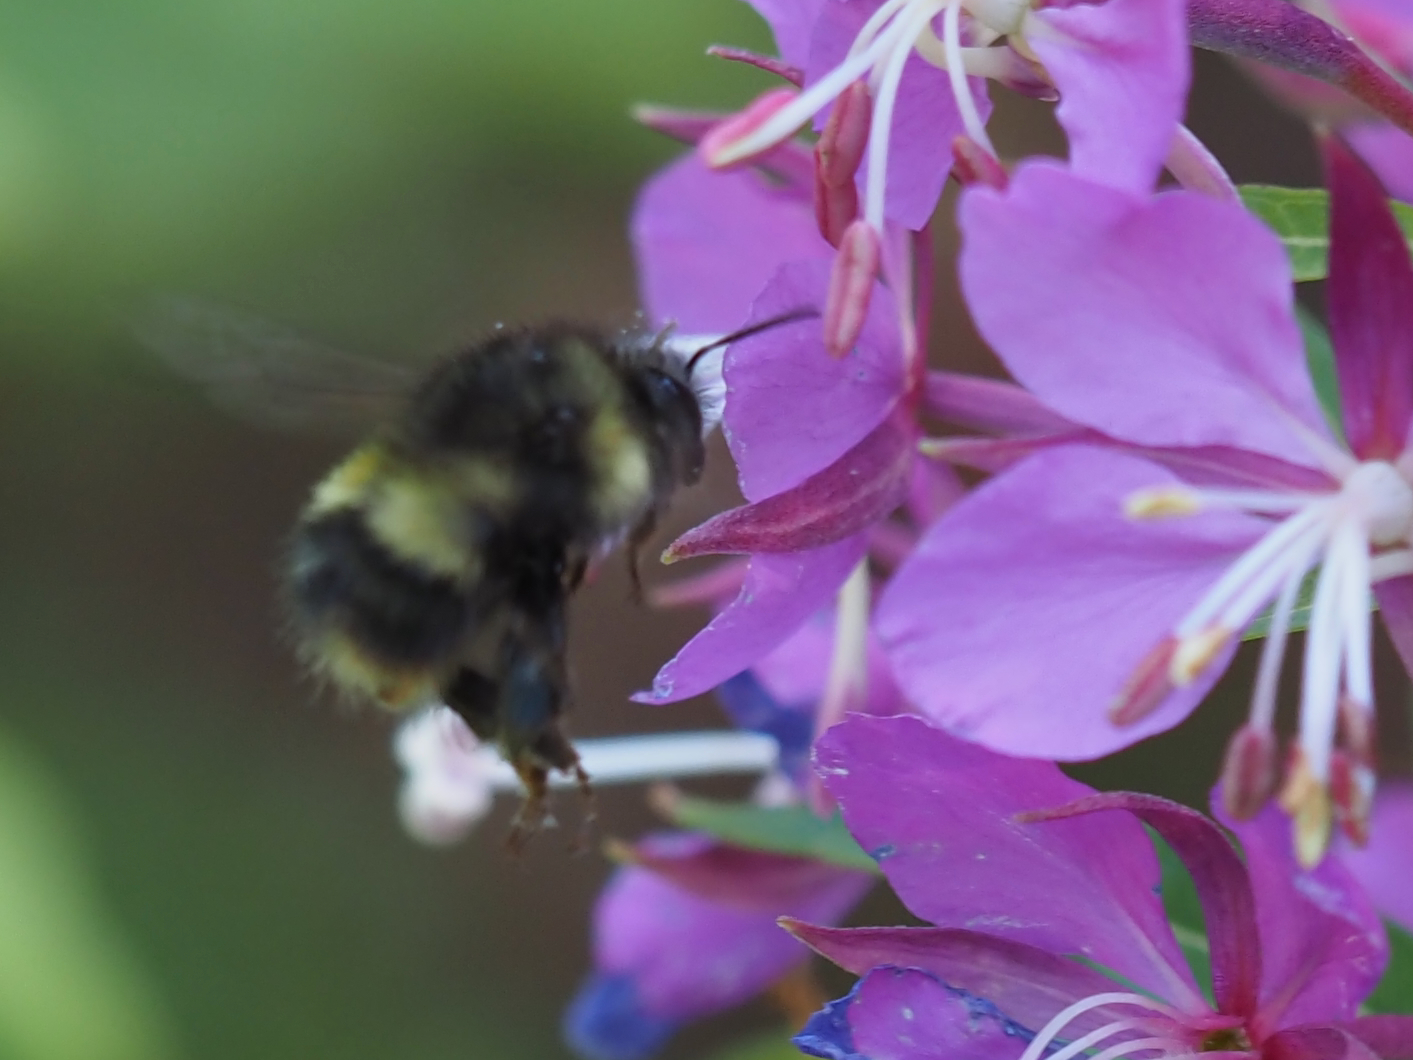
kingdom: Animalia
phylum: Arthropoda
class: Insecta
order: Hymenoptera
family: Apidae
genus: Bombus
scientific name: Bombus sitkensis
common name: Sitka bumble bee
